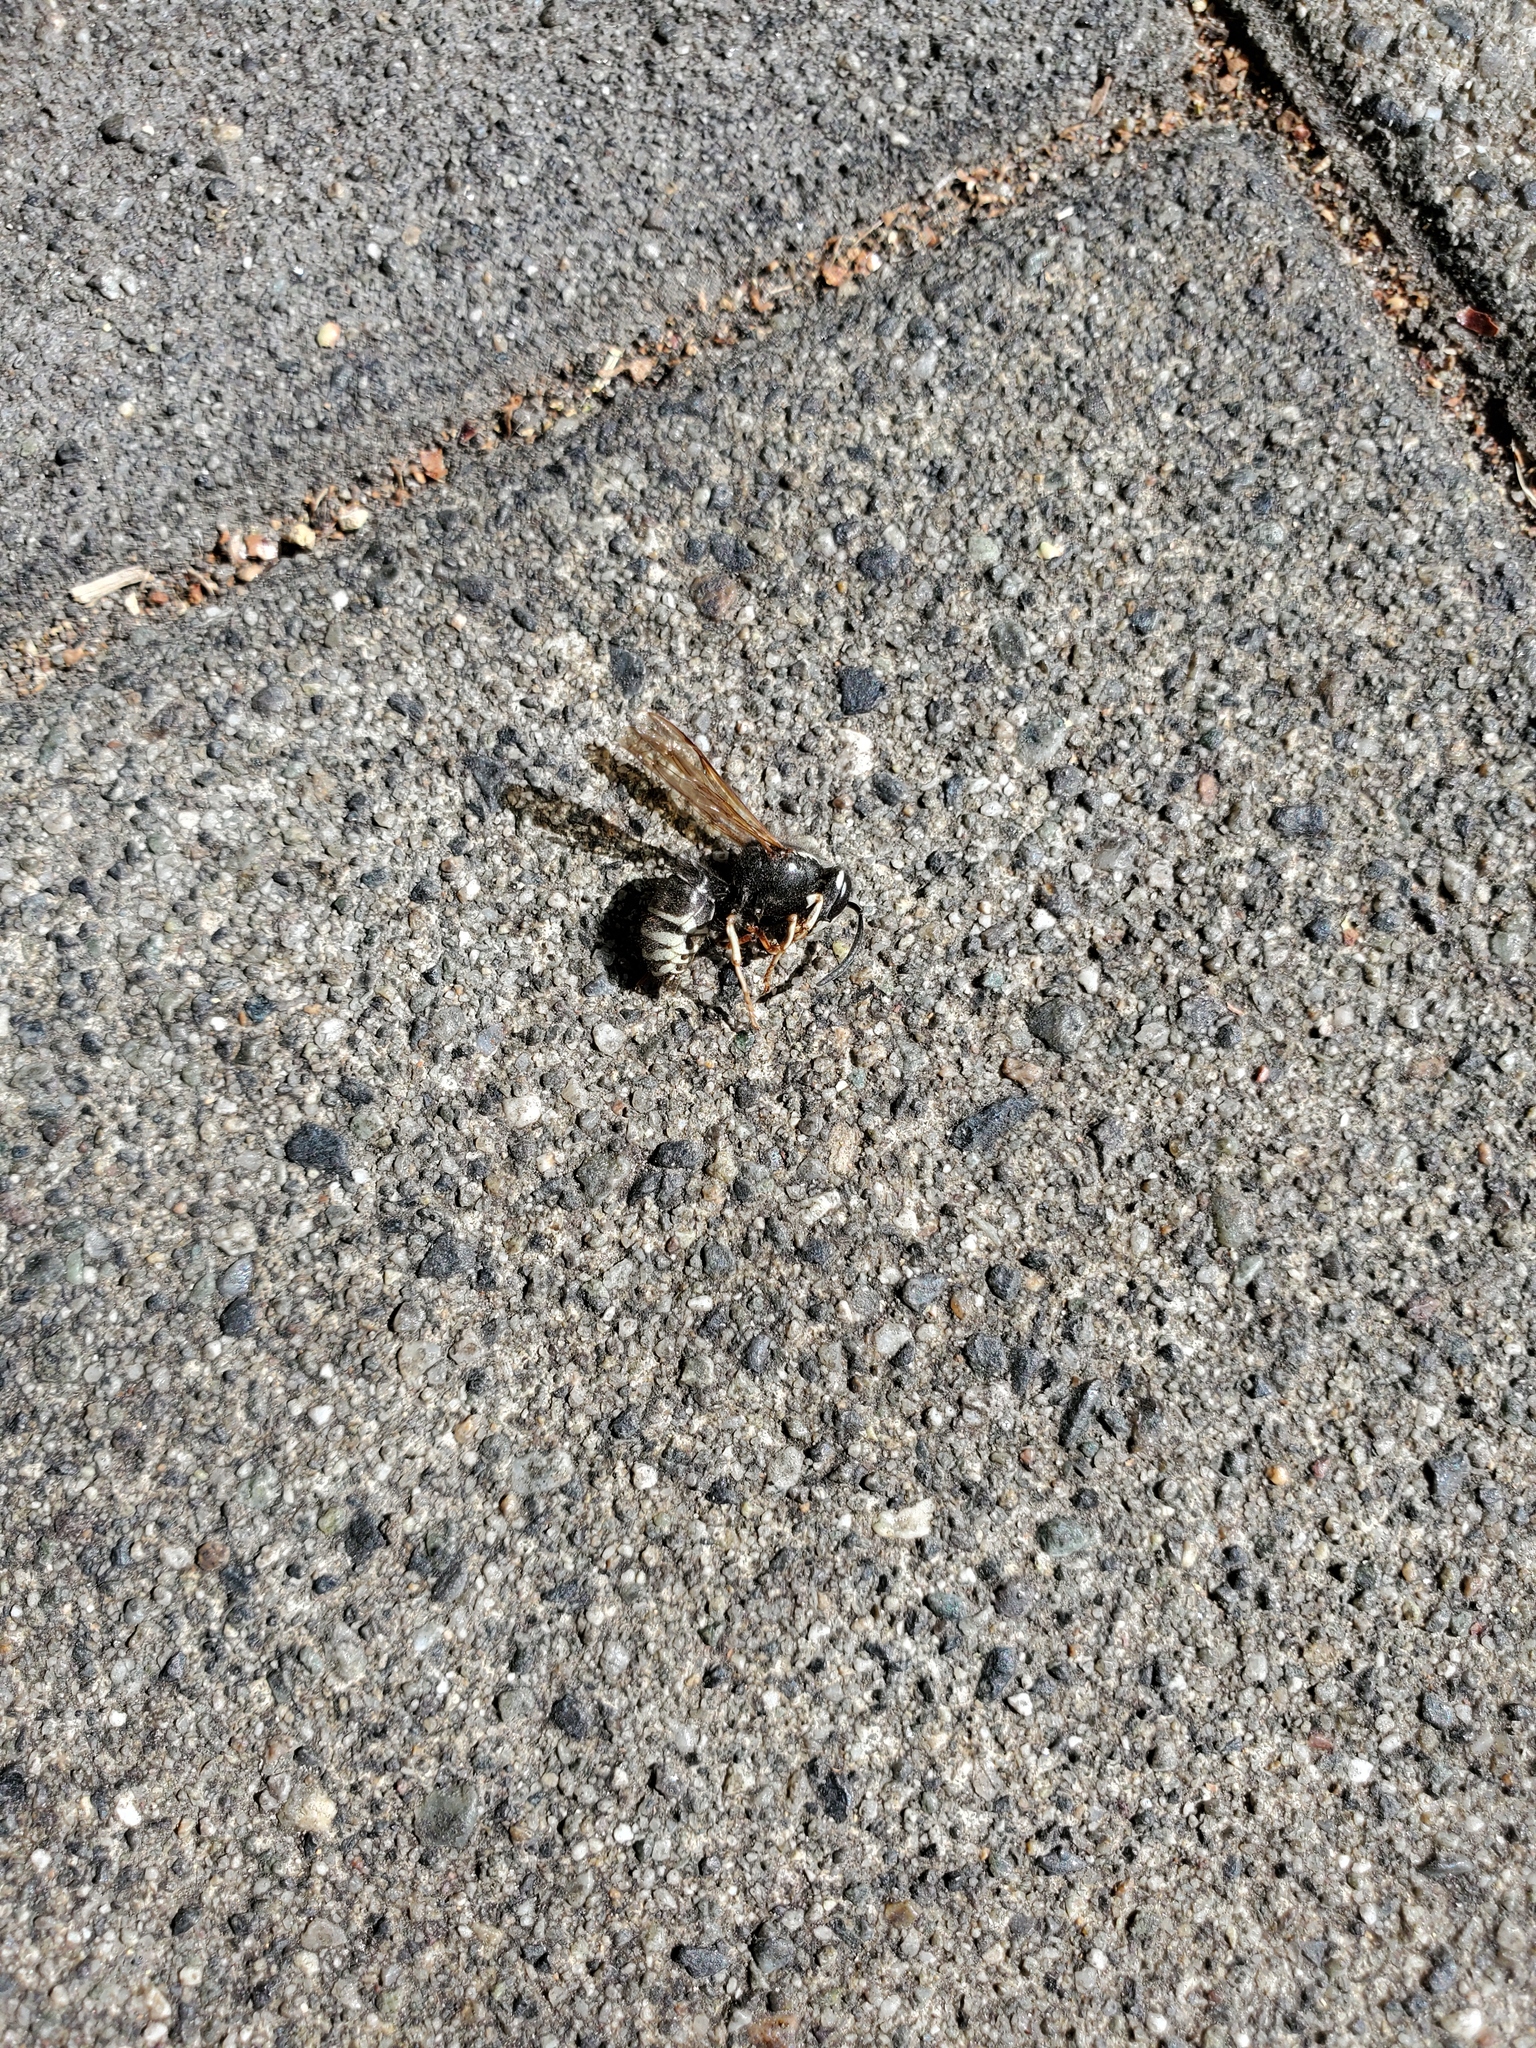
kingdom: Animalia
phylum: Arthropoda
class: Insecta
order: Hymenoptera
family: Vespidae
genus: Vespula
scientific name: Vespula consobrina
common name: Blackjacket
